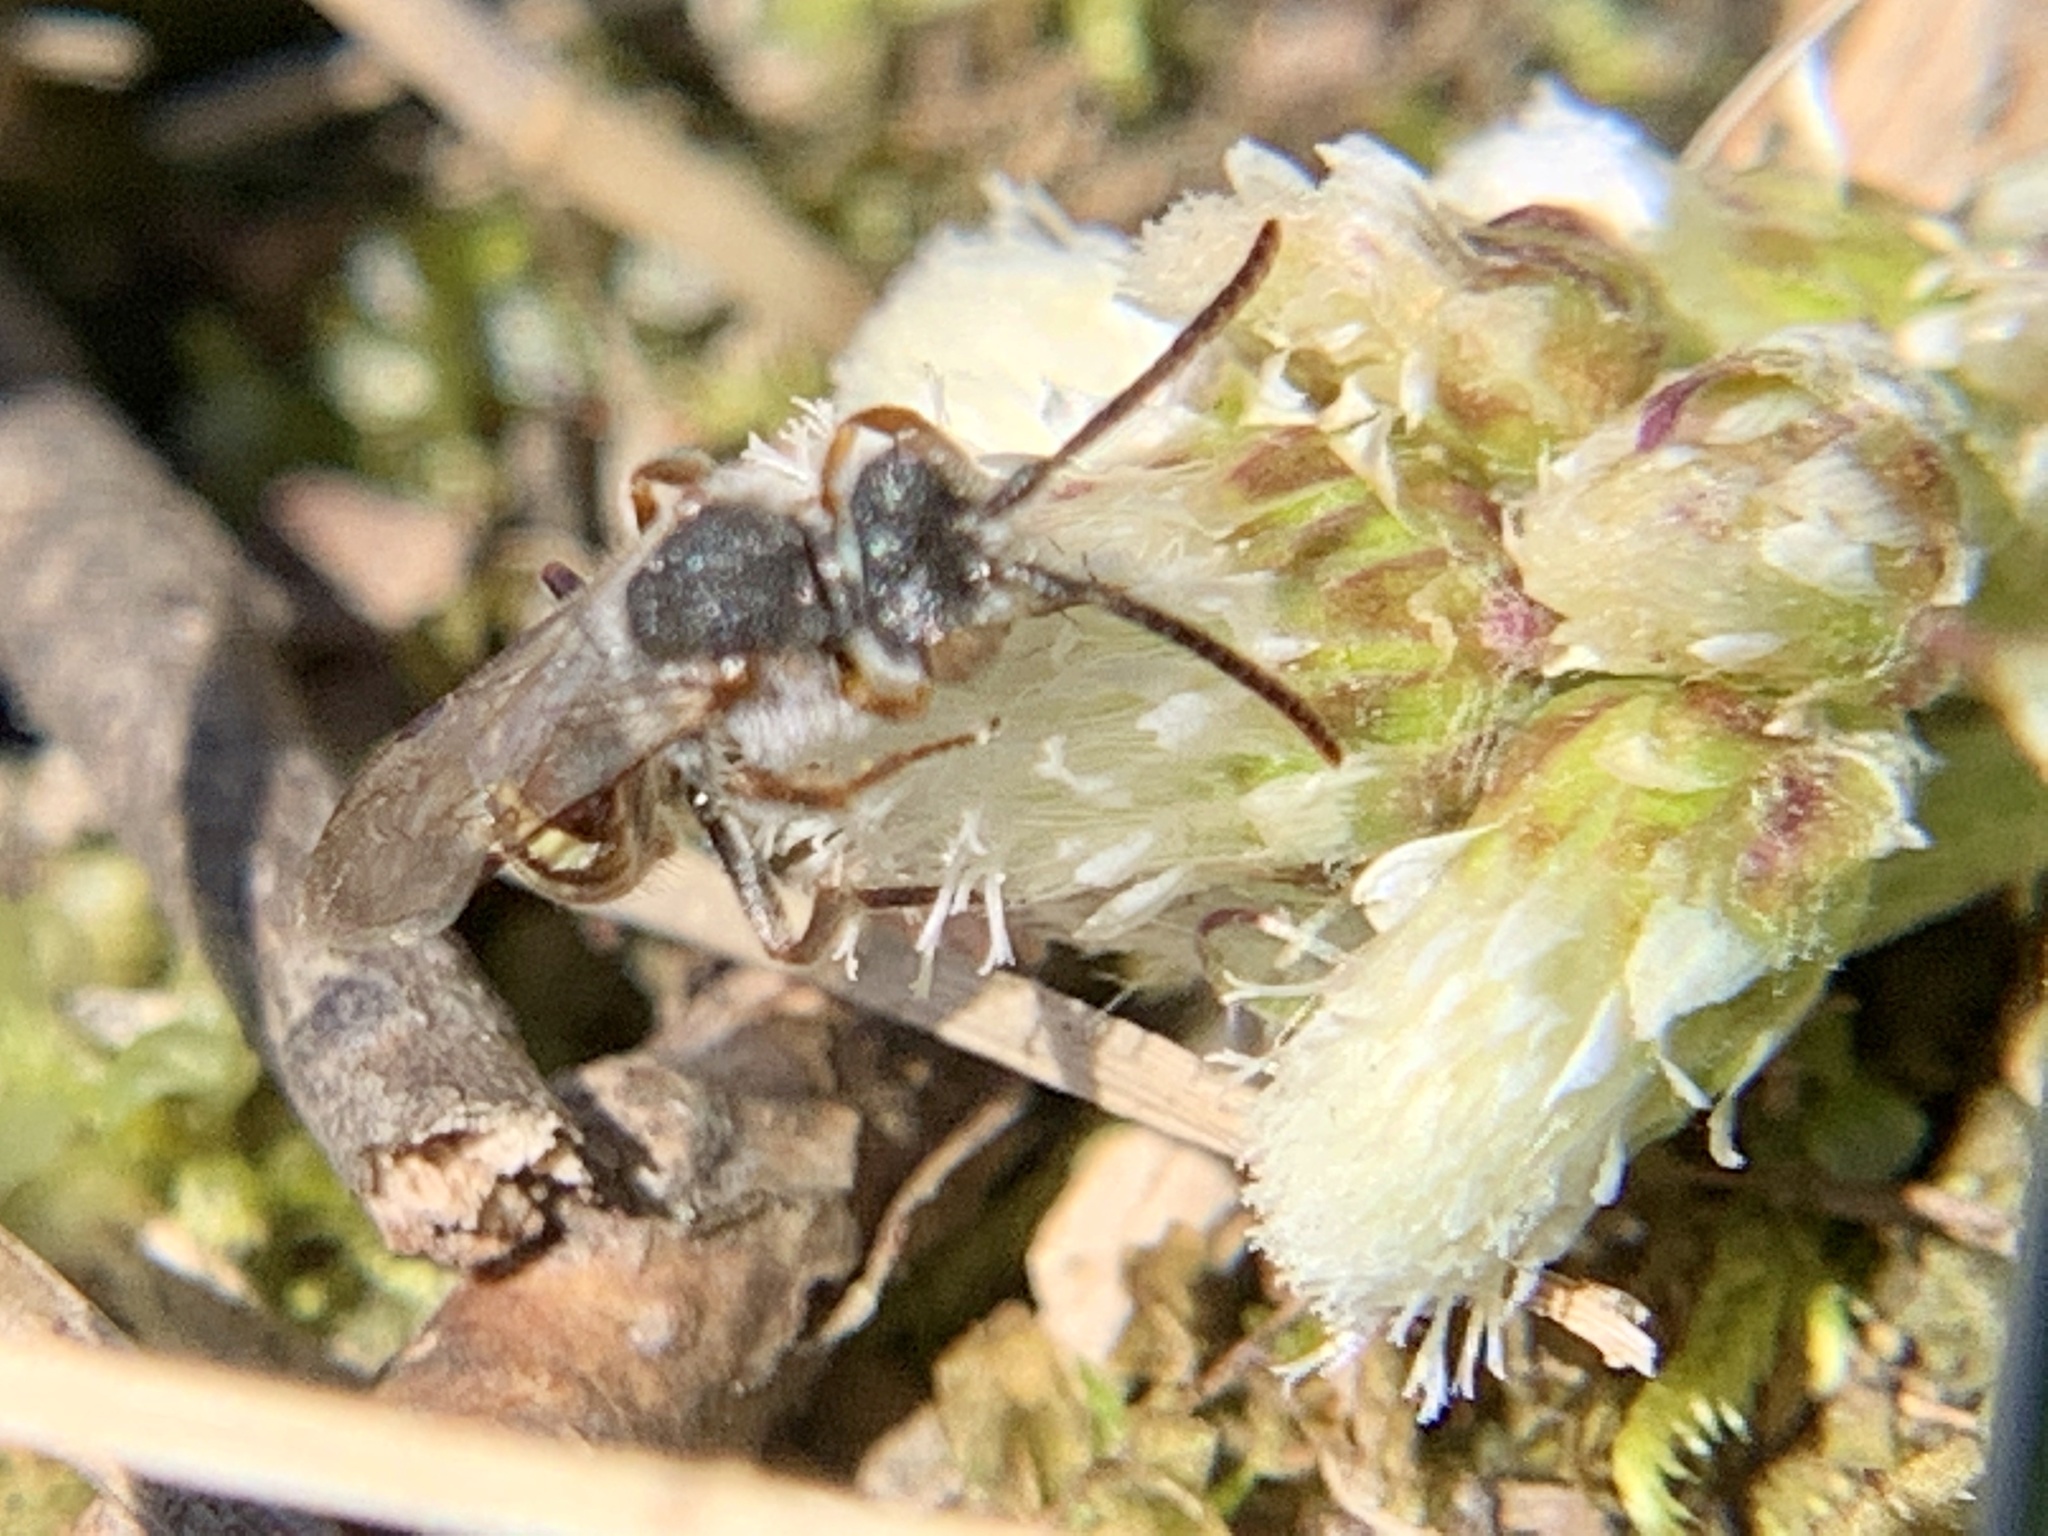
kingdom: Animalia
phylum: Arthropoda
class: Insecta
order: Hymenoptera
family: Apidae
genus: Nomada
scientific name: Nomada
